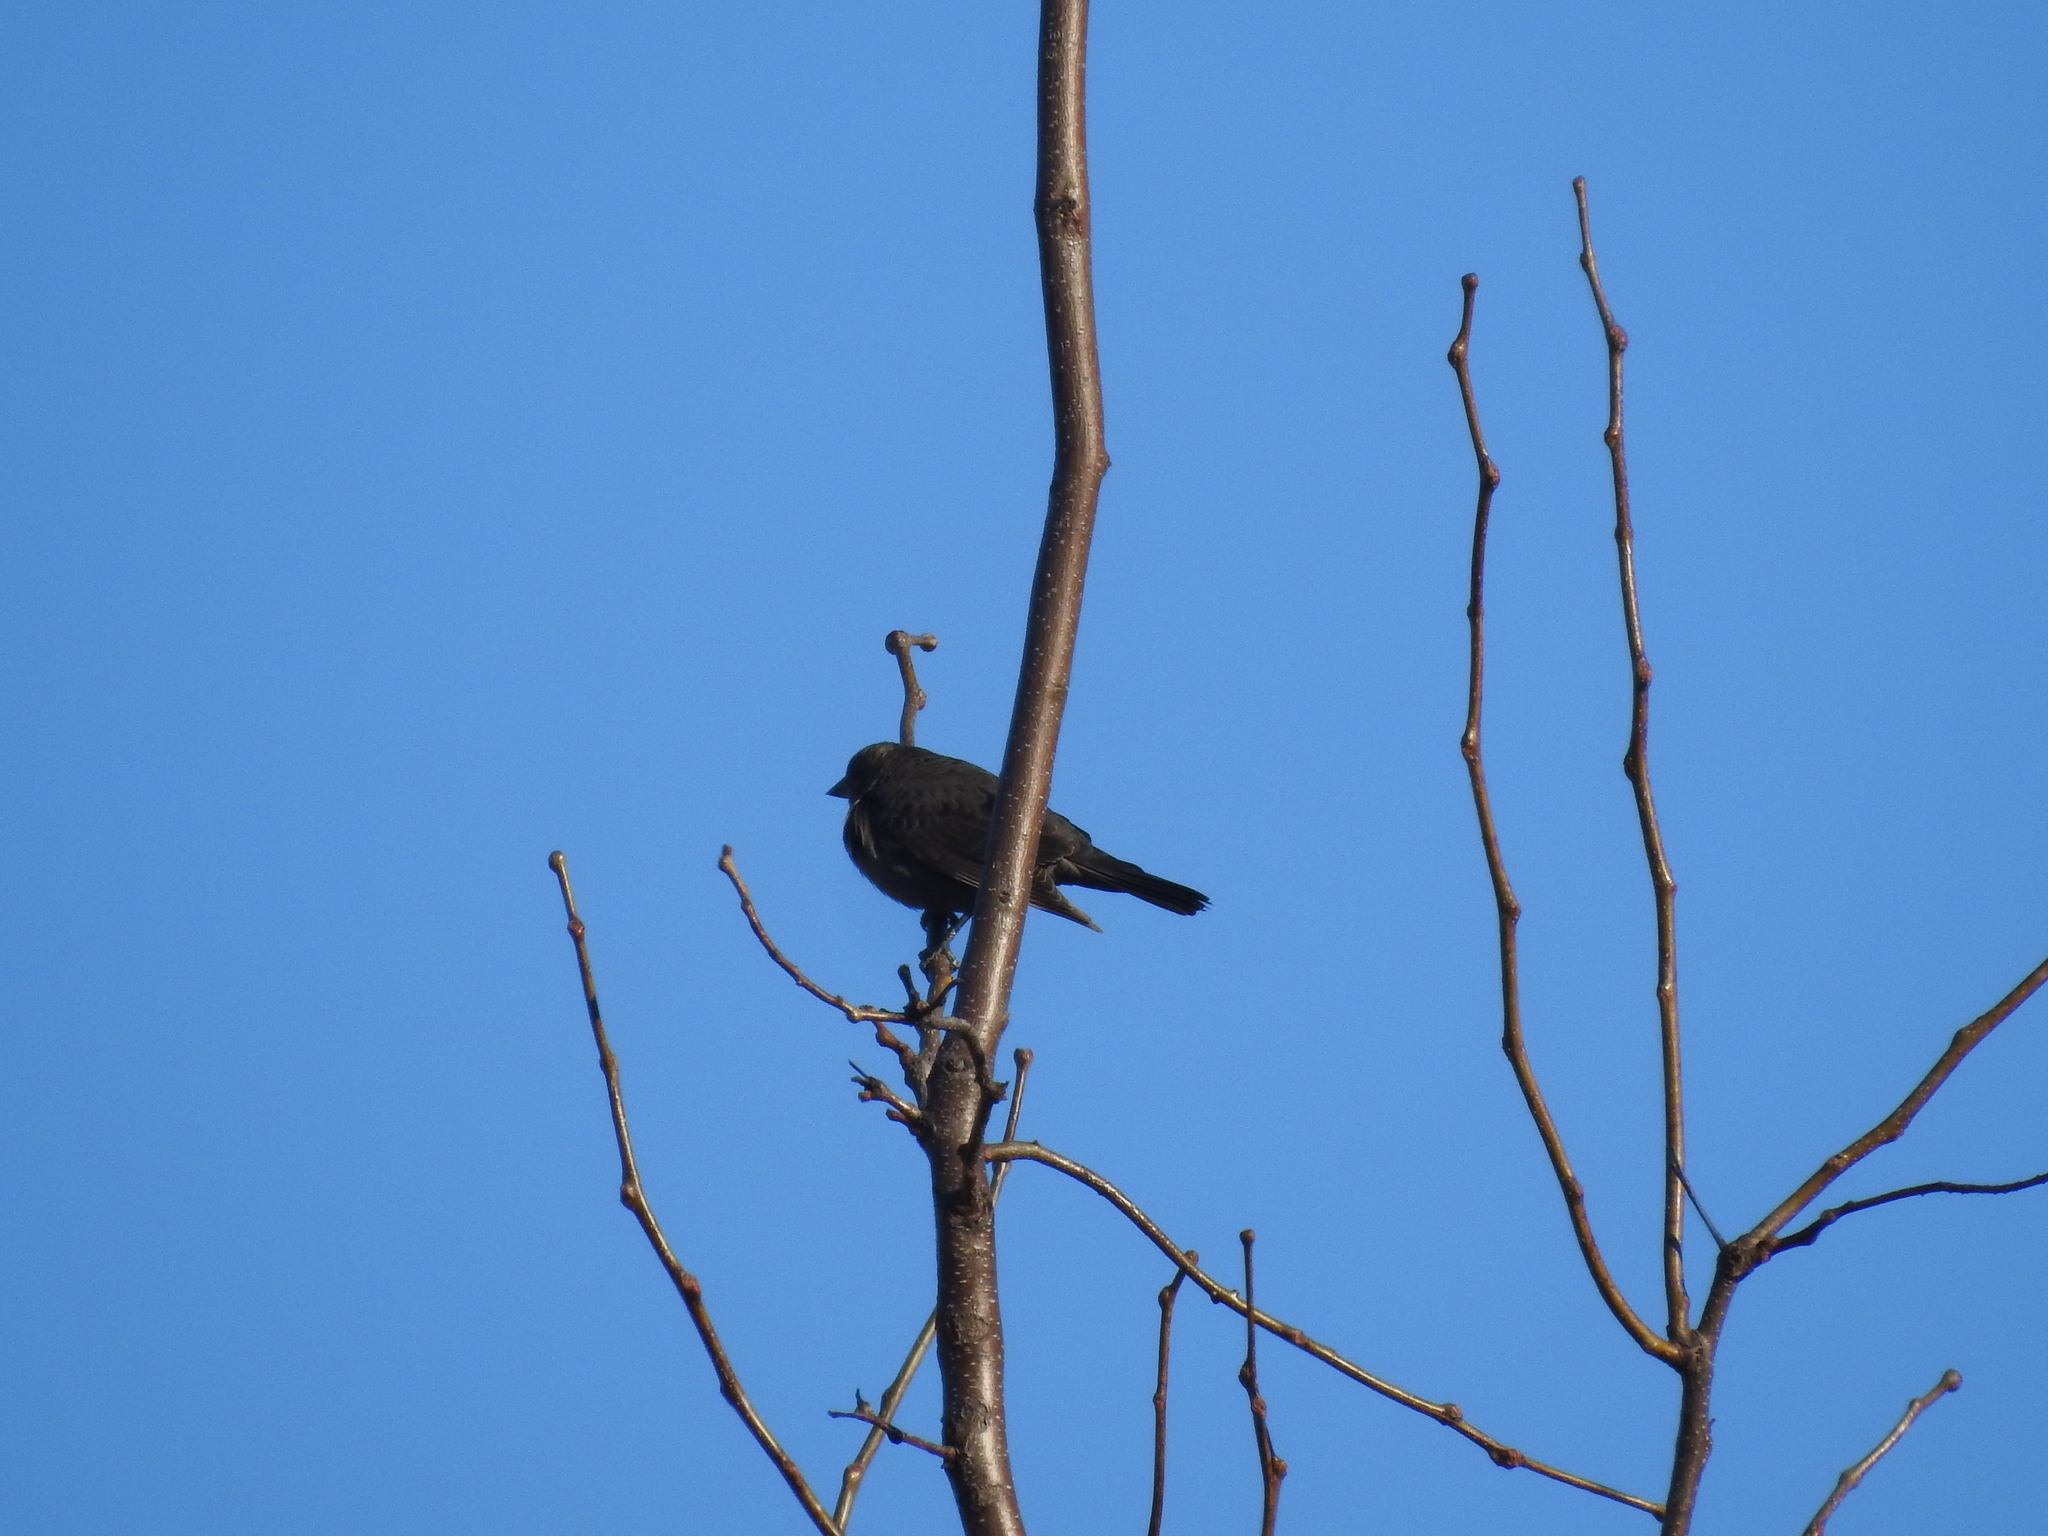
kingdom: Animalia
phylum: Chordata
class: Aves
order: Passeriformes
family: Icteridae
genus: Molothrus
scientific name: Molothrus ater
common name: Brown-headed cowbird
